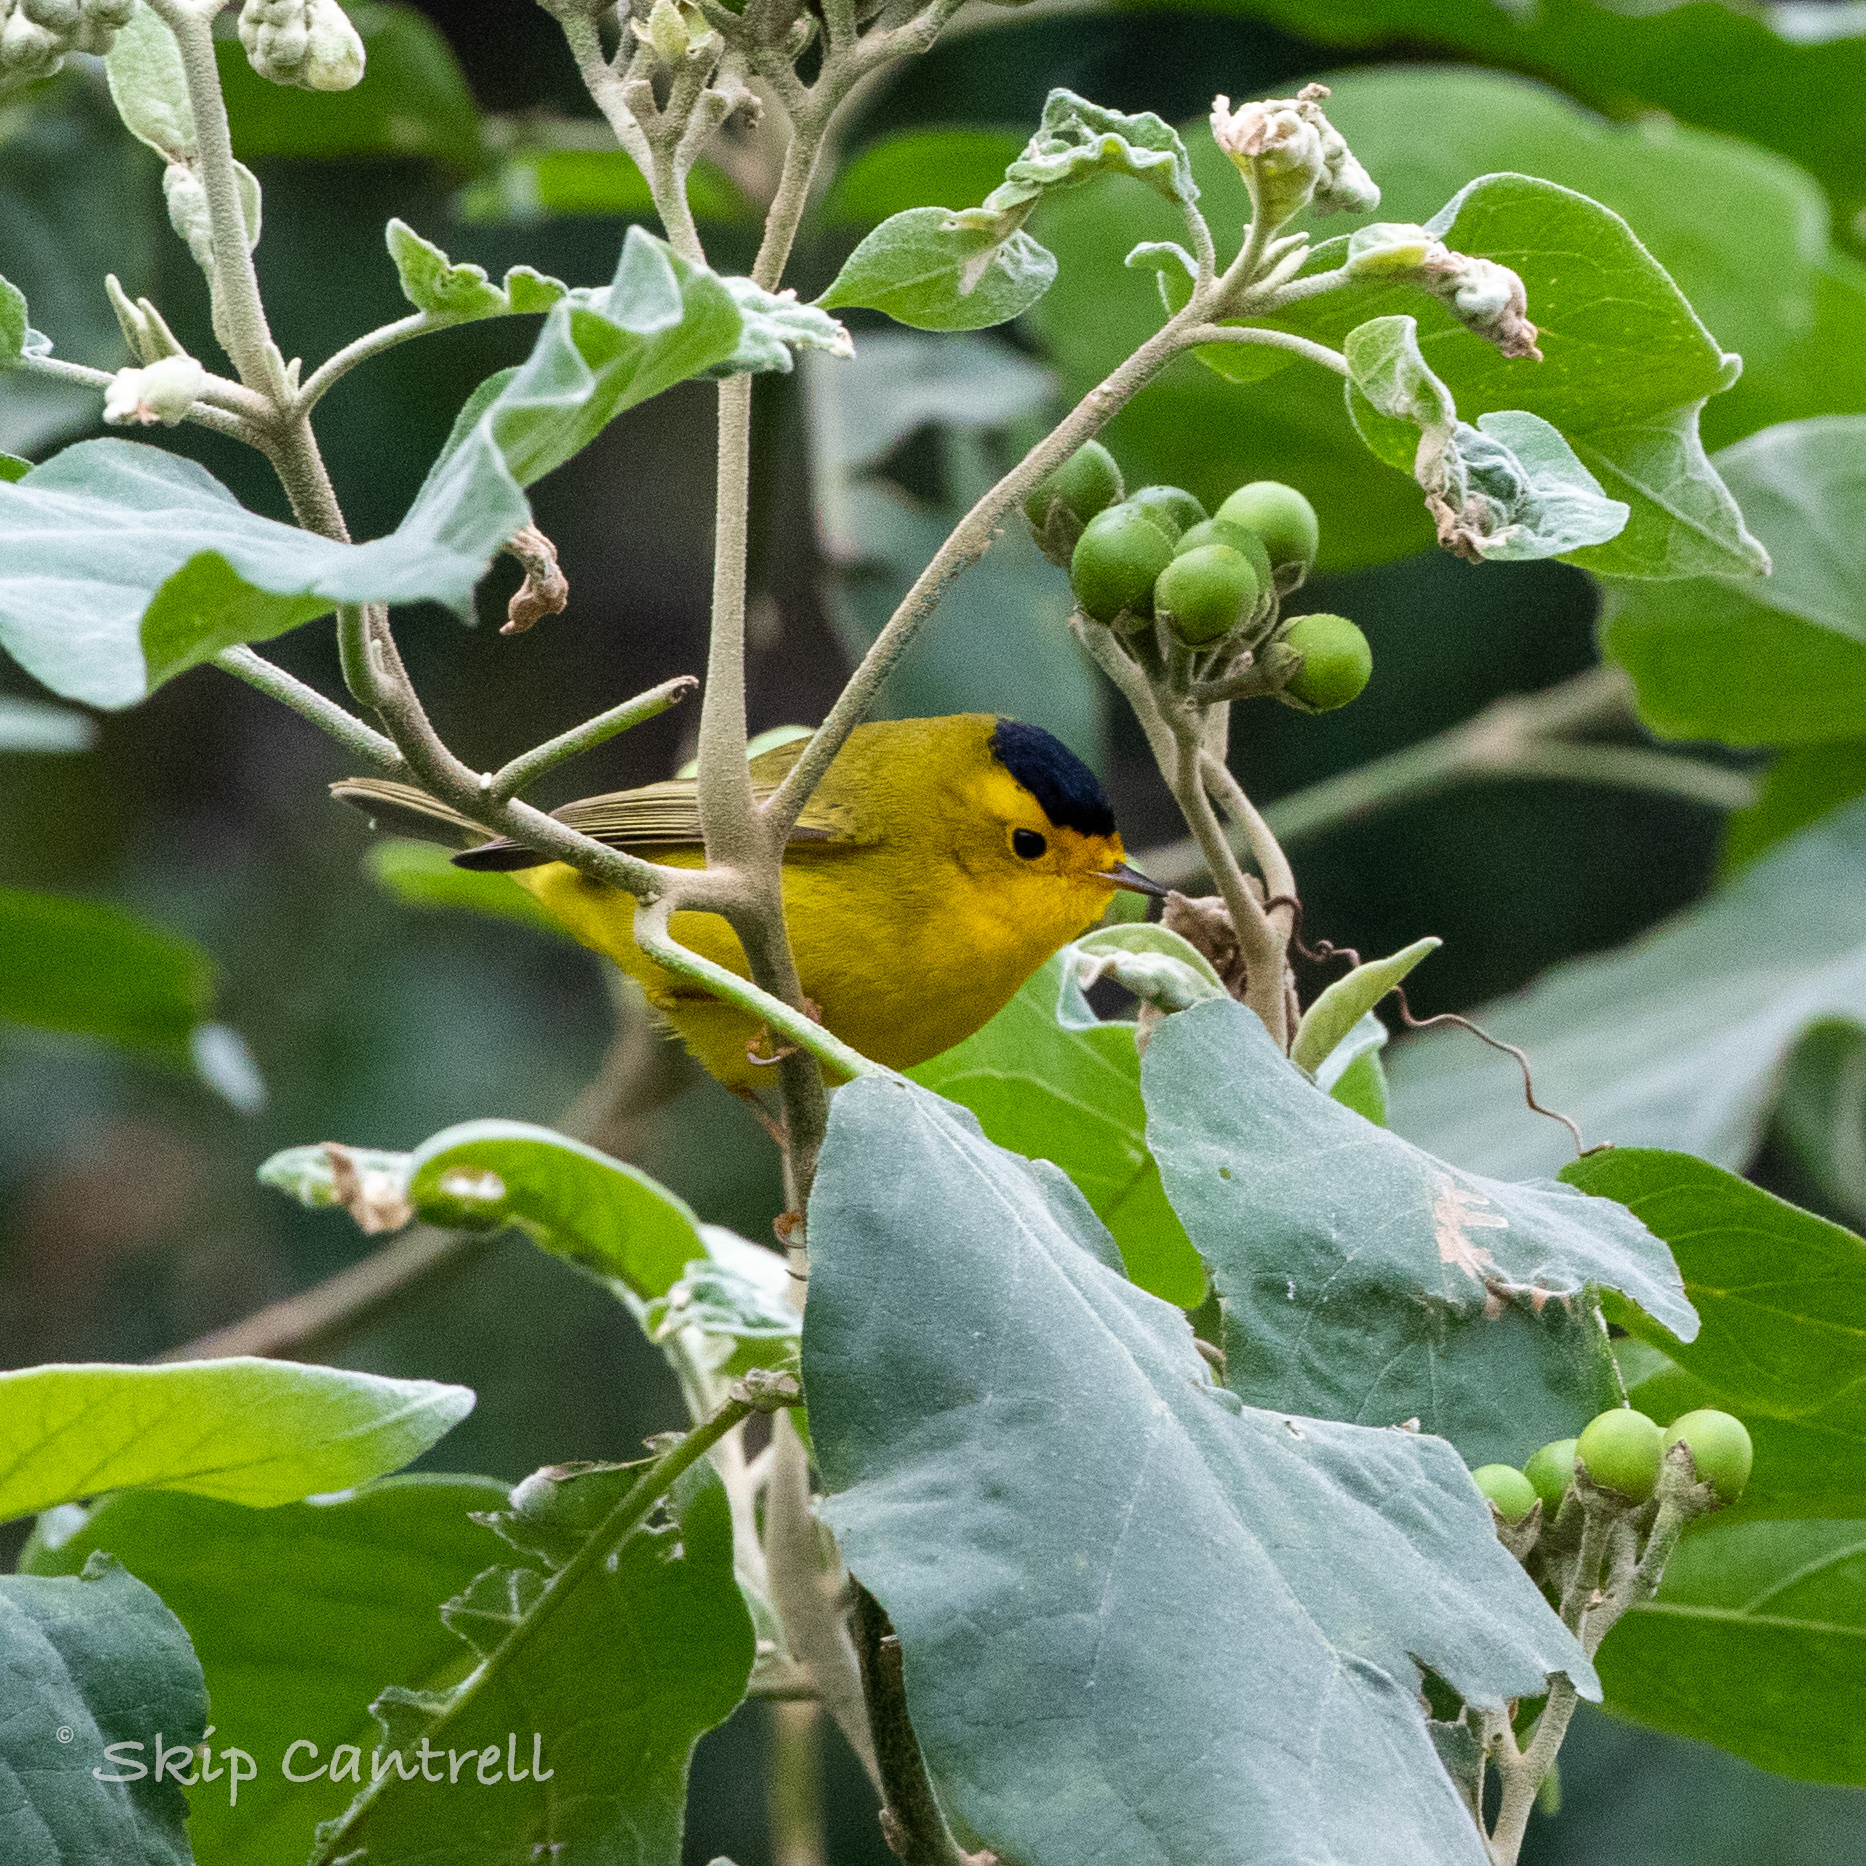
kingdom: Animalia
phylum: Chordata
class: Aves
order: Passeriformes
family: Parulidae
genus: Cardellina
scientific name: Cardellina pusilla
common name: Wilson's warbler
